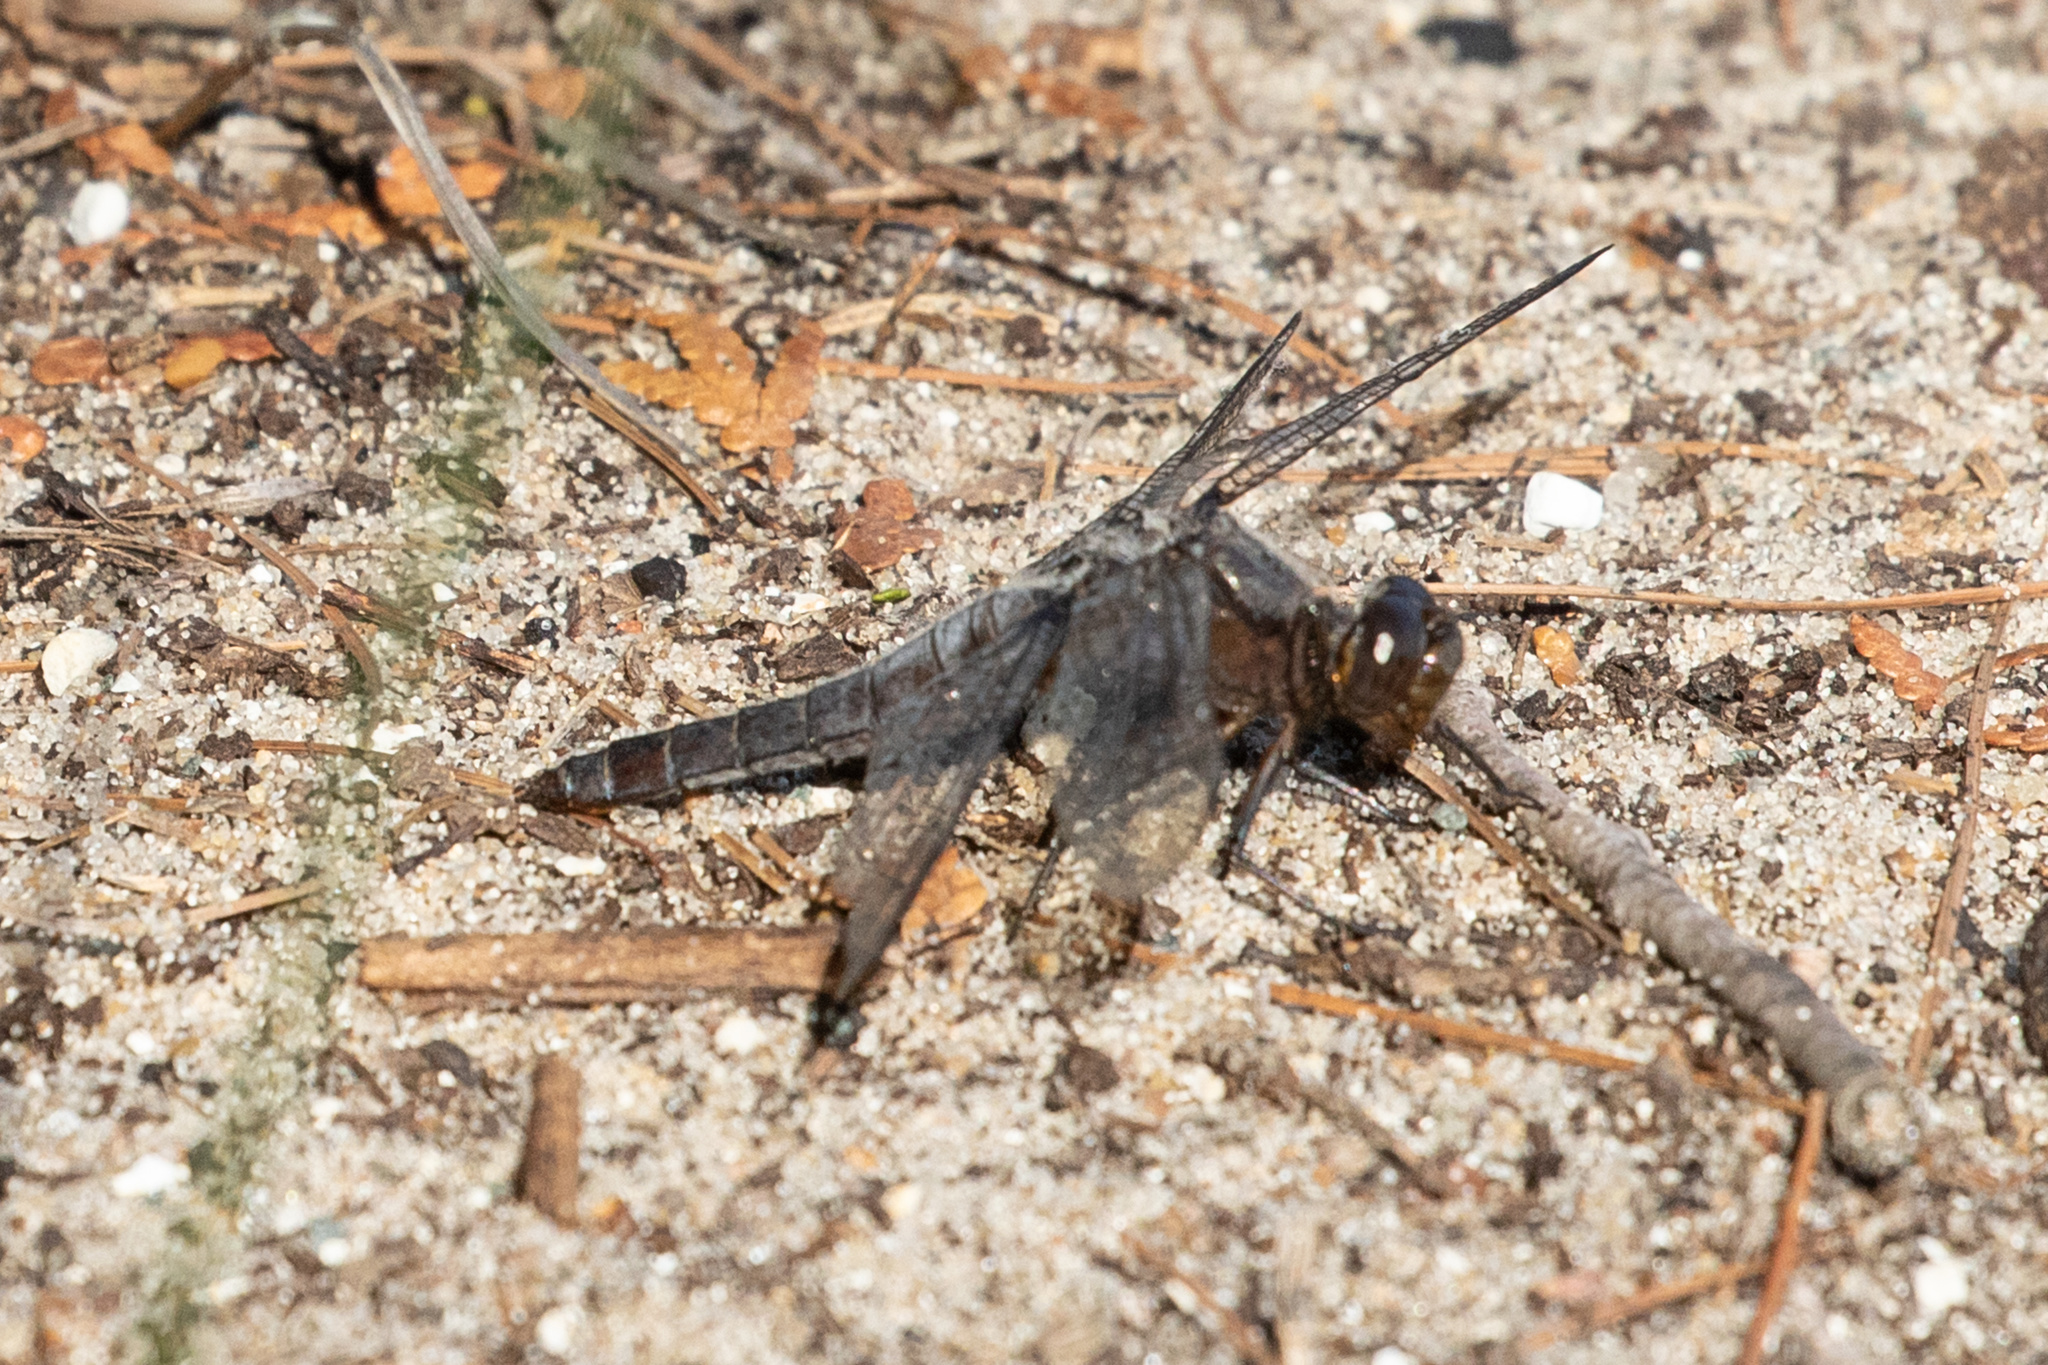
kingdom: Animalia
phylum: Arthropoda
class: Insecta
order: Odonata
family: Libellulidae
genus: Ladona
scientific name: Ladona julia
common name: Chalk-fronted corporal
